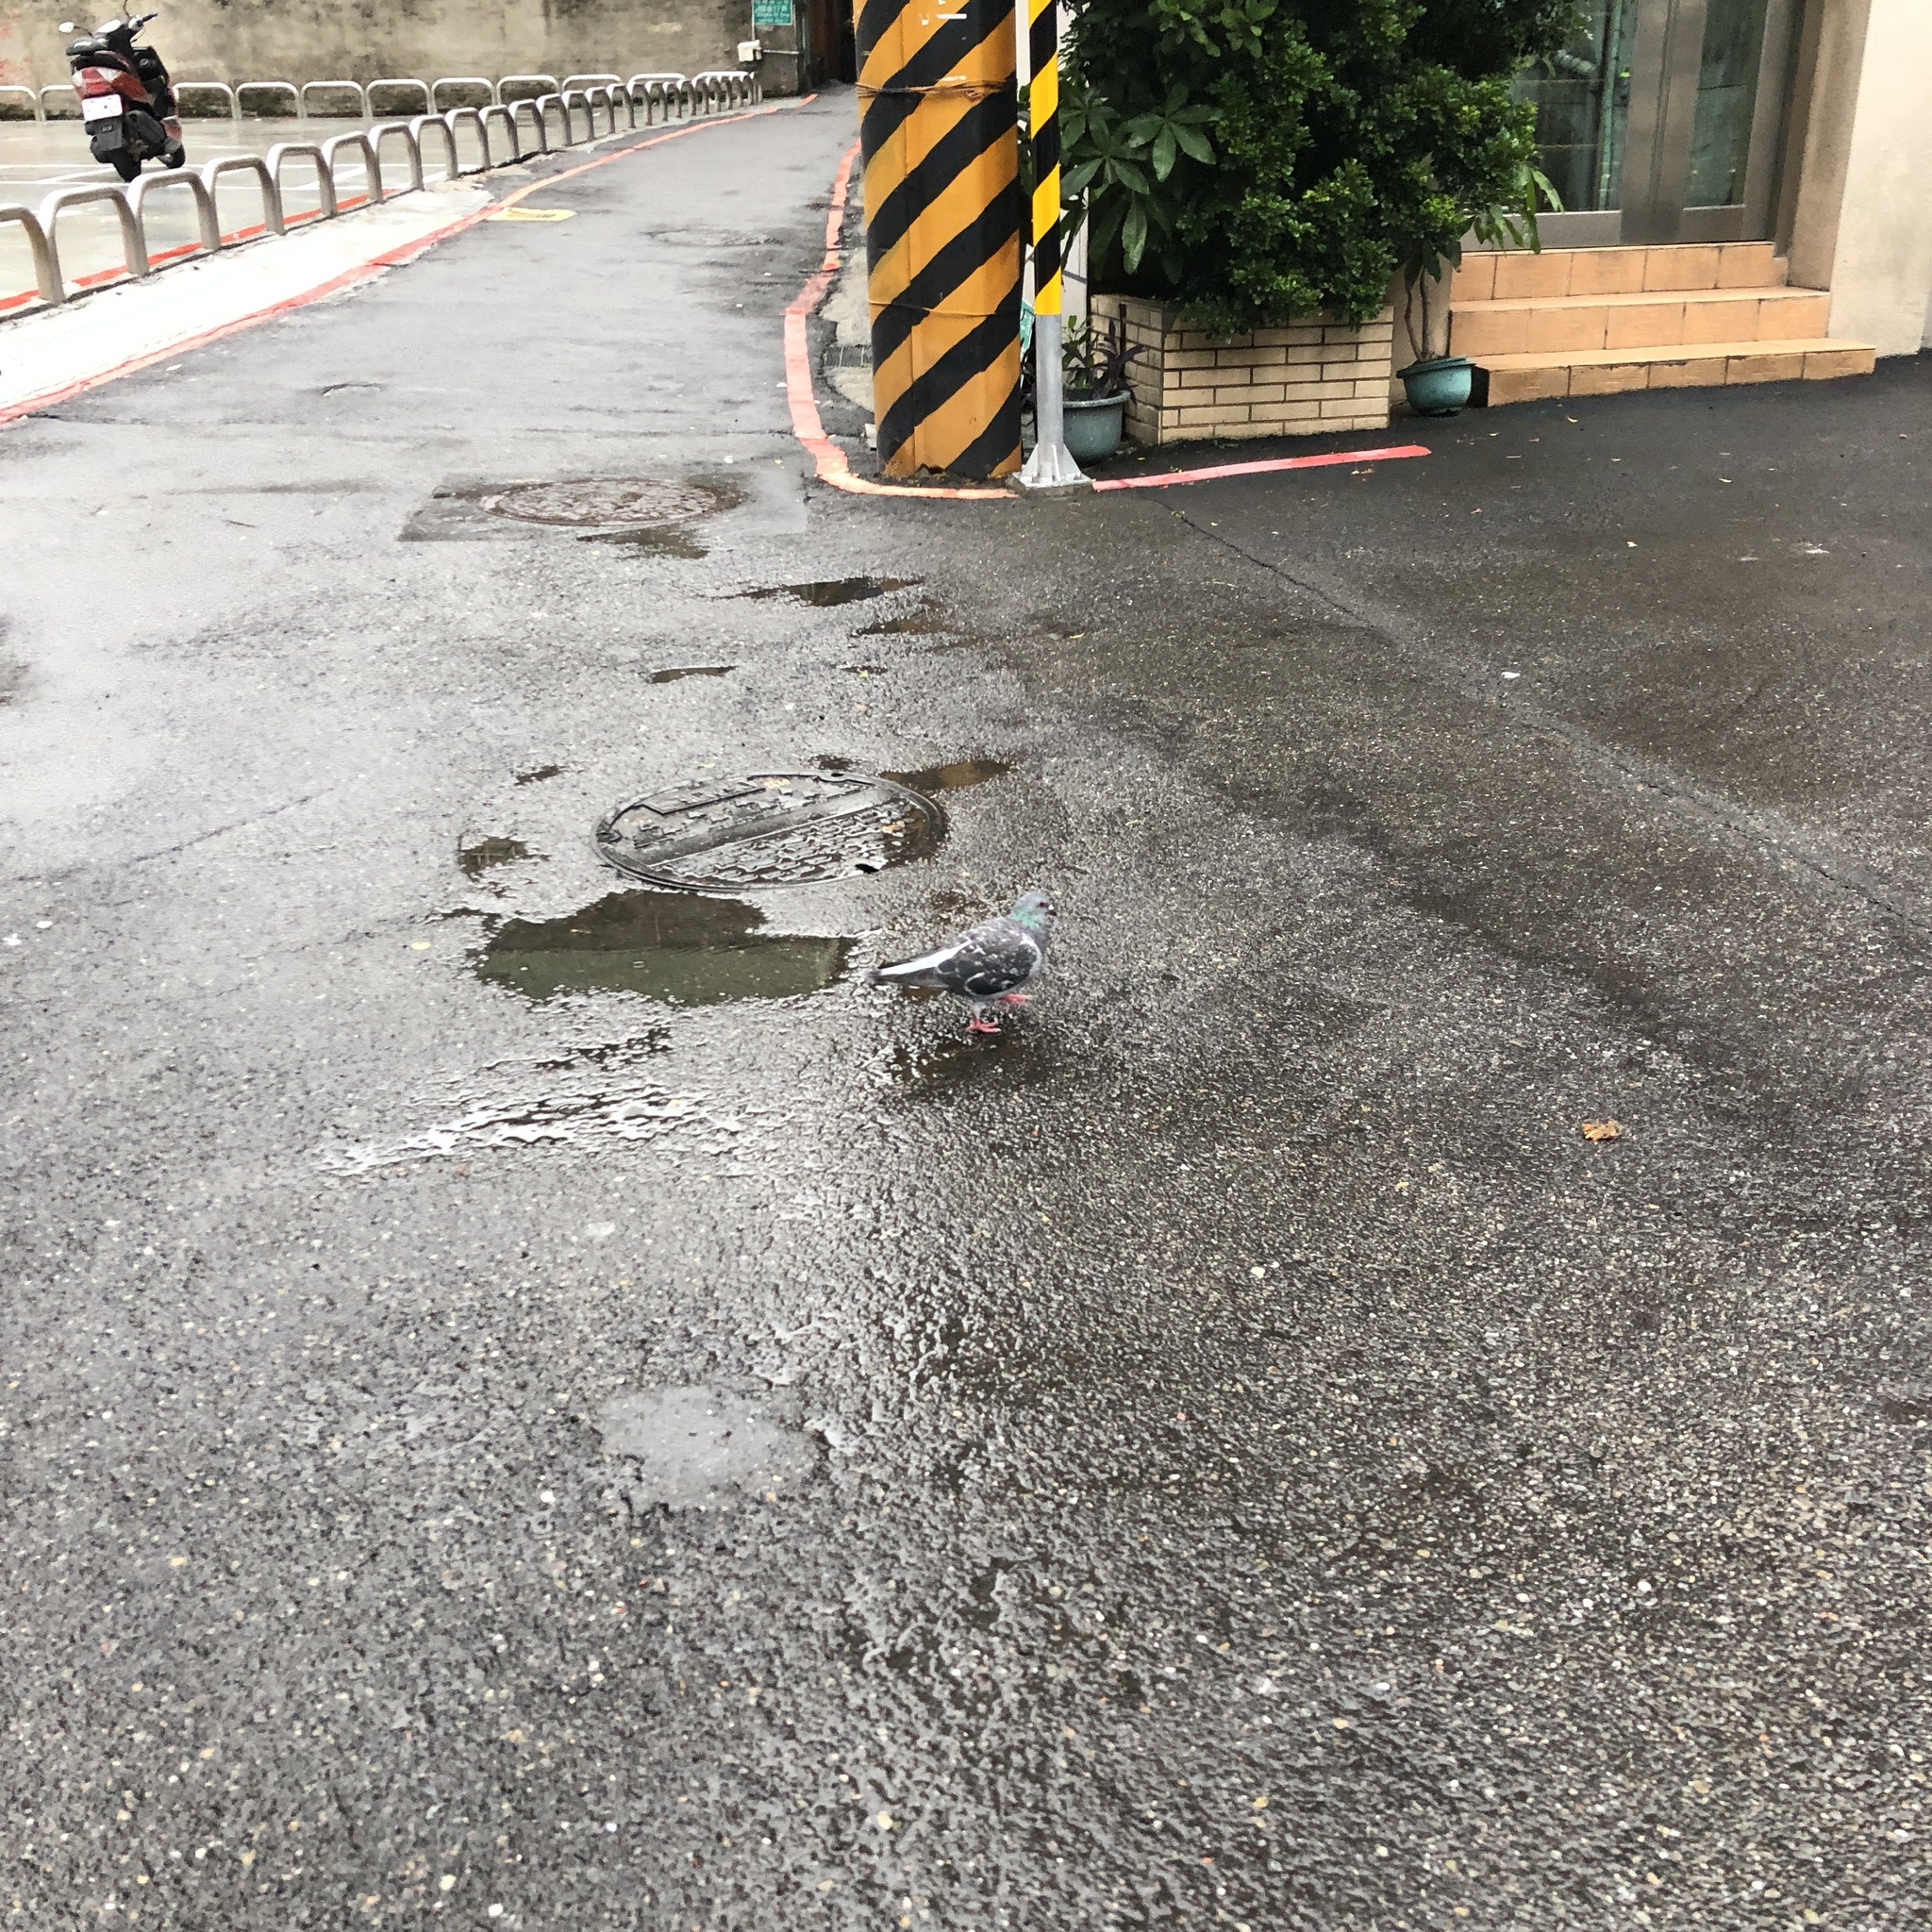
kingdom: Animalia
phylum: Chordata
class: Aves
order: Columbiformes
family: Columbidae
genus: Columba
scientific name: Columba livia
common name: Rock pigeon
